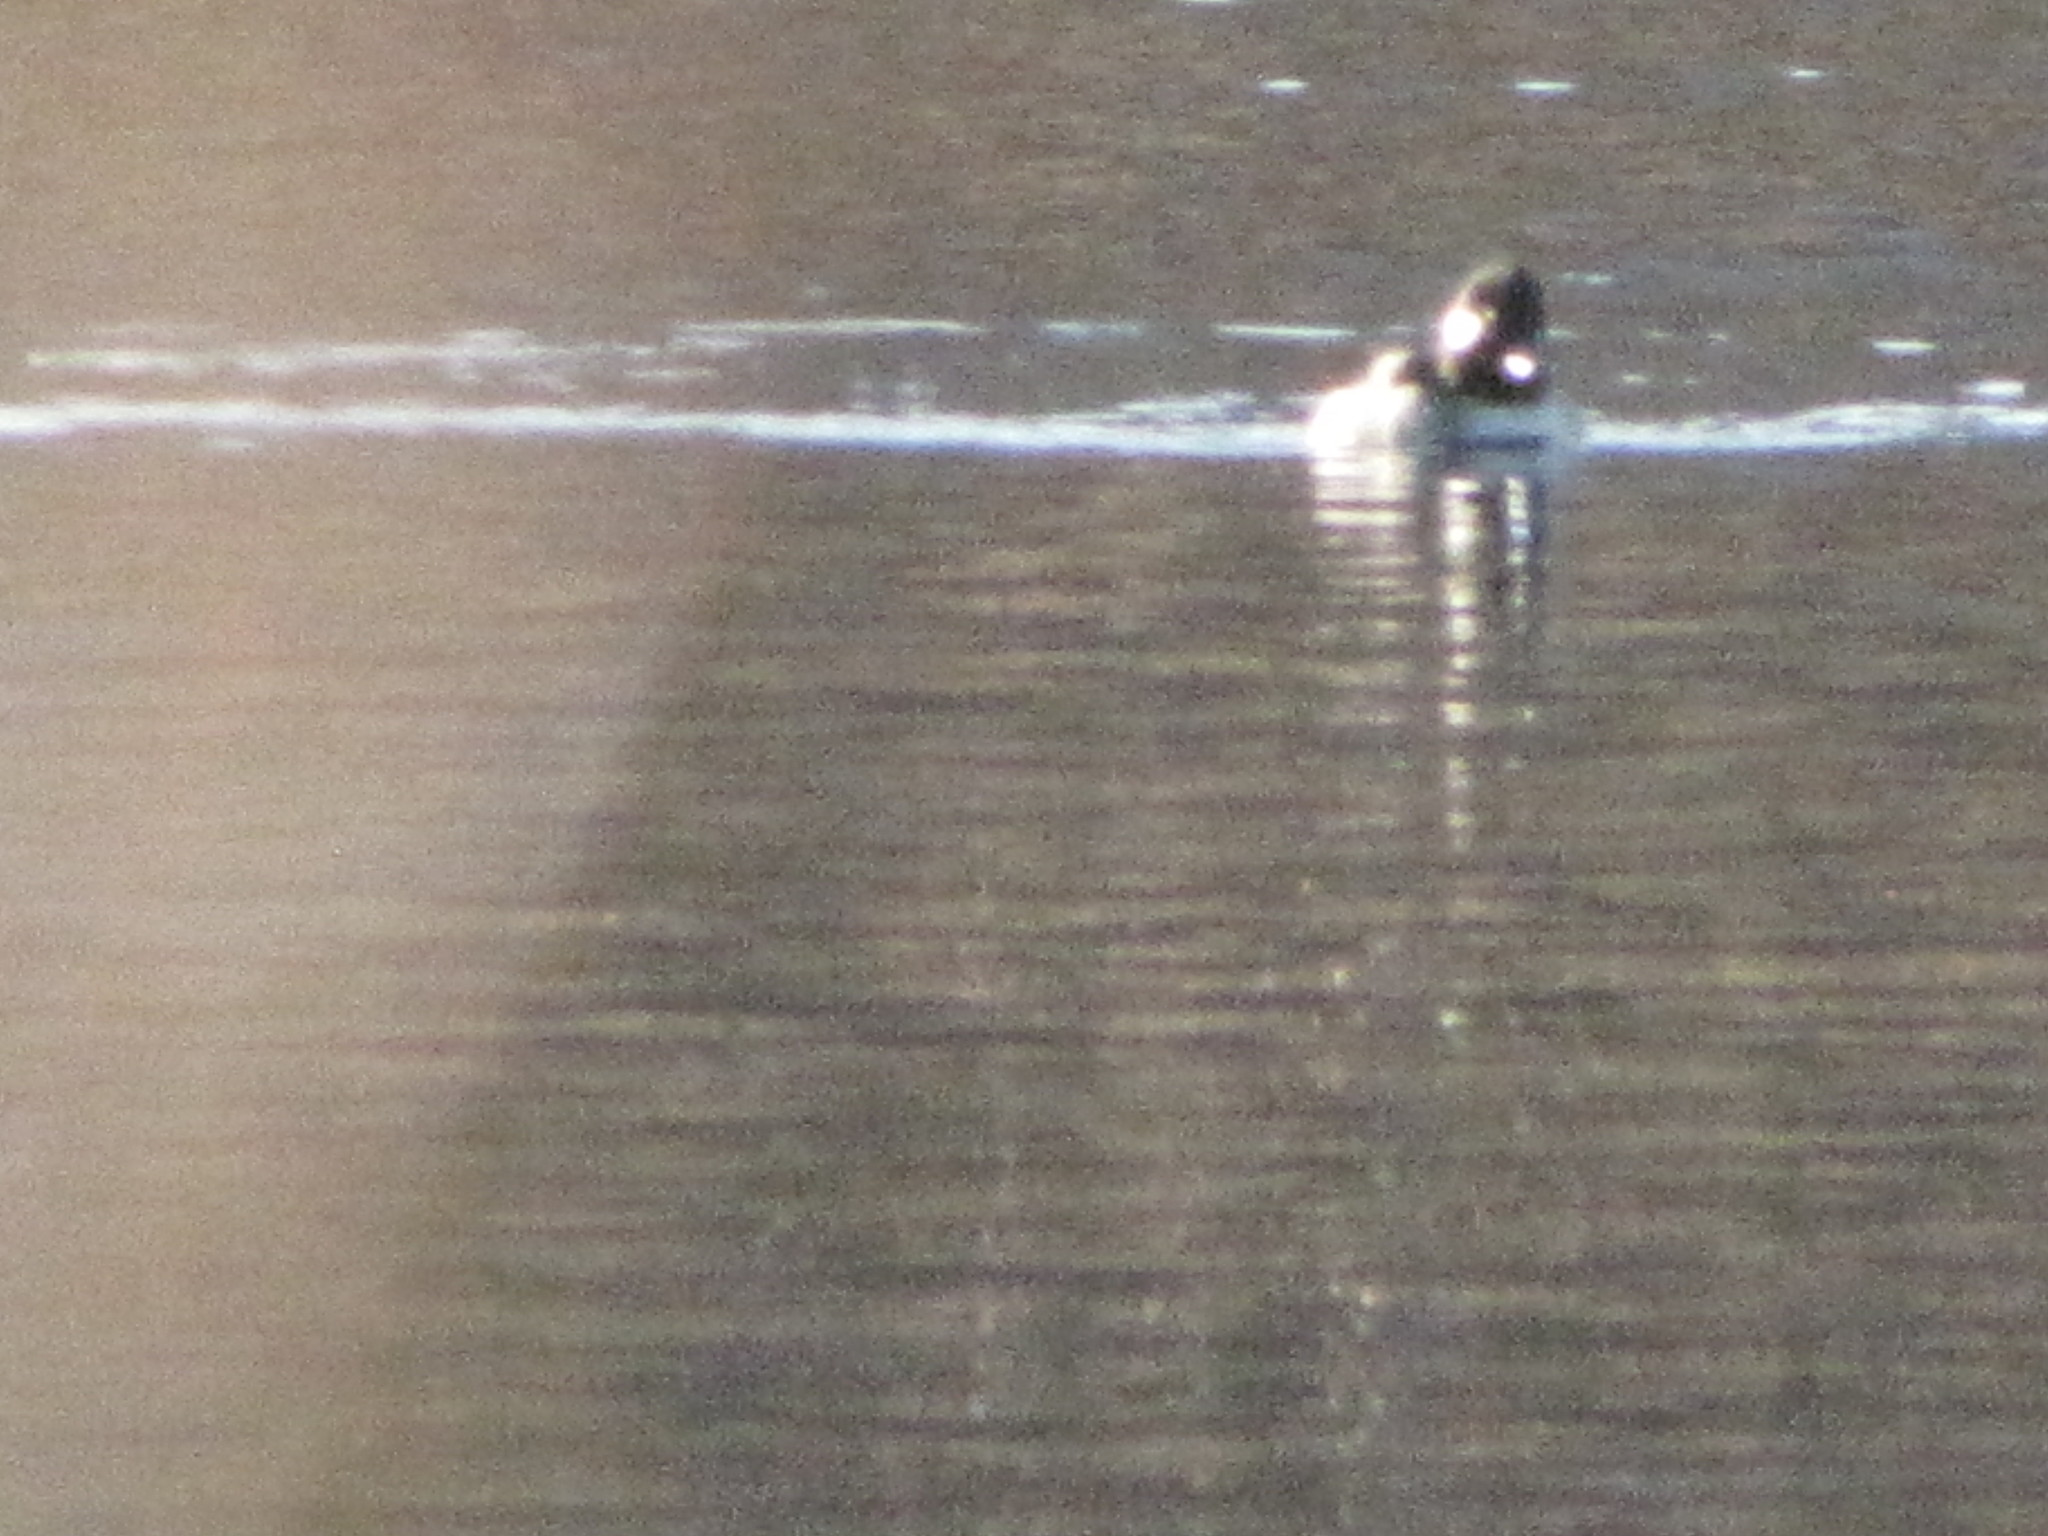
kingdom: Animalia
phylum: Chordata
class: Aves
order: Anseriformes
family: Anatidae
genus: Bucephala
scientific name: Bucephala albeola
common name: Bufflehead
